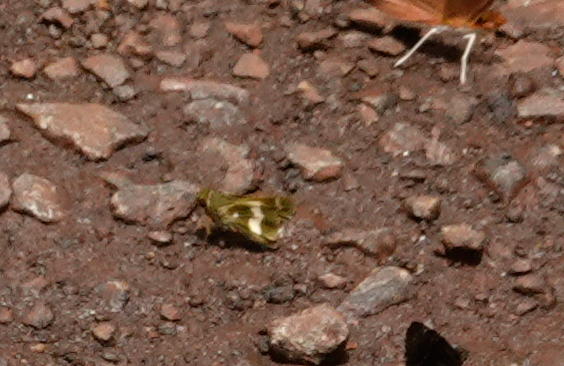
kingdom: Animalia
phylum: Arthropoda
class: Insecta
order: Lepidoptera
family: Hesperiidae
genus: Metron
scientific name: Metron oropa
